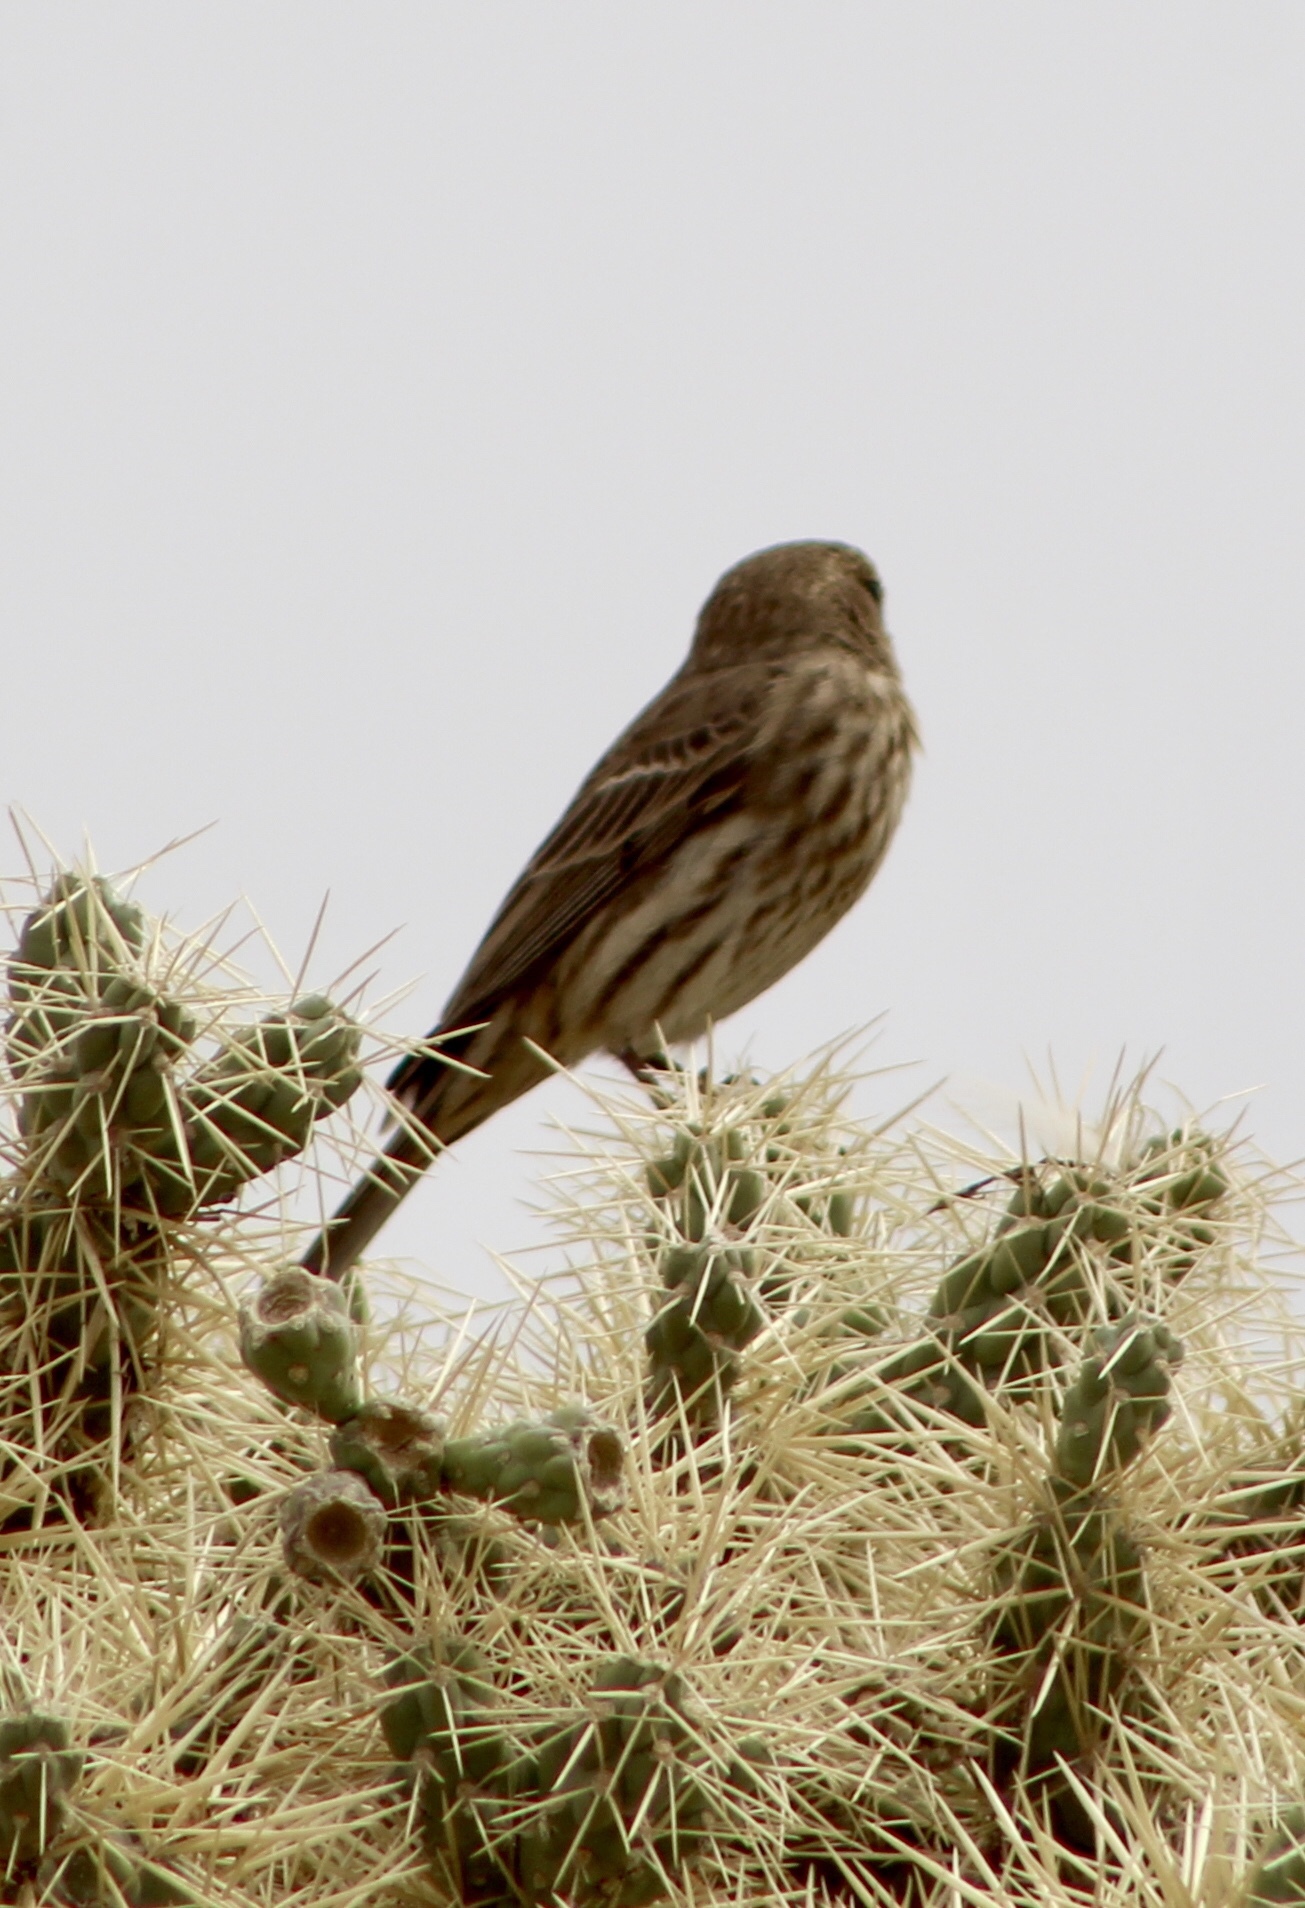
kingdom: Animalia
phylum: Chordata
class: Aves
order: Passeriformes
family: Fringillidae
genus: Haemorhous
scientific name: Haemorhous mexicanus
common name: House finch
